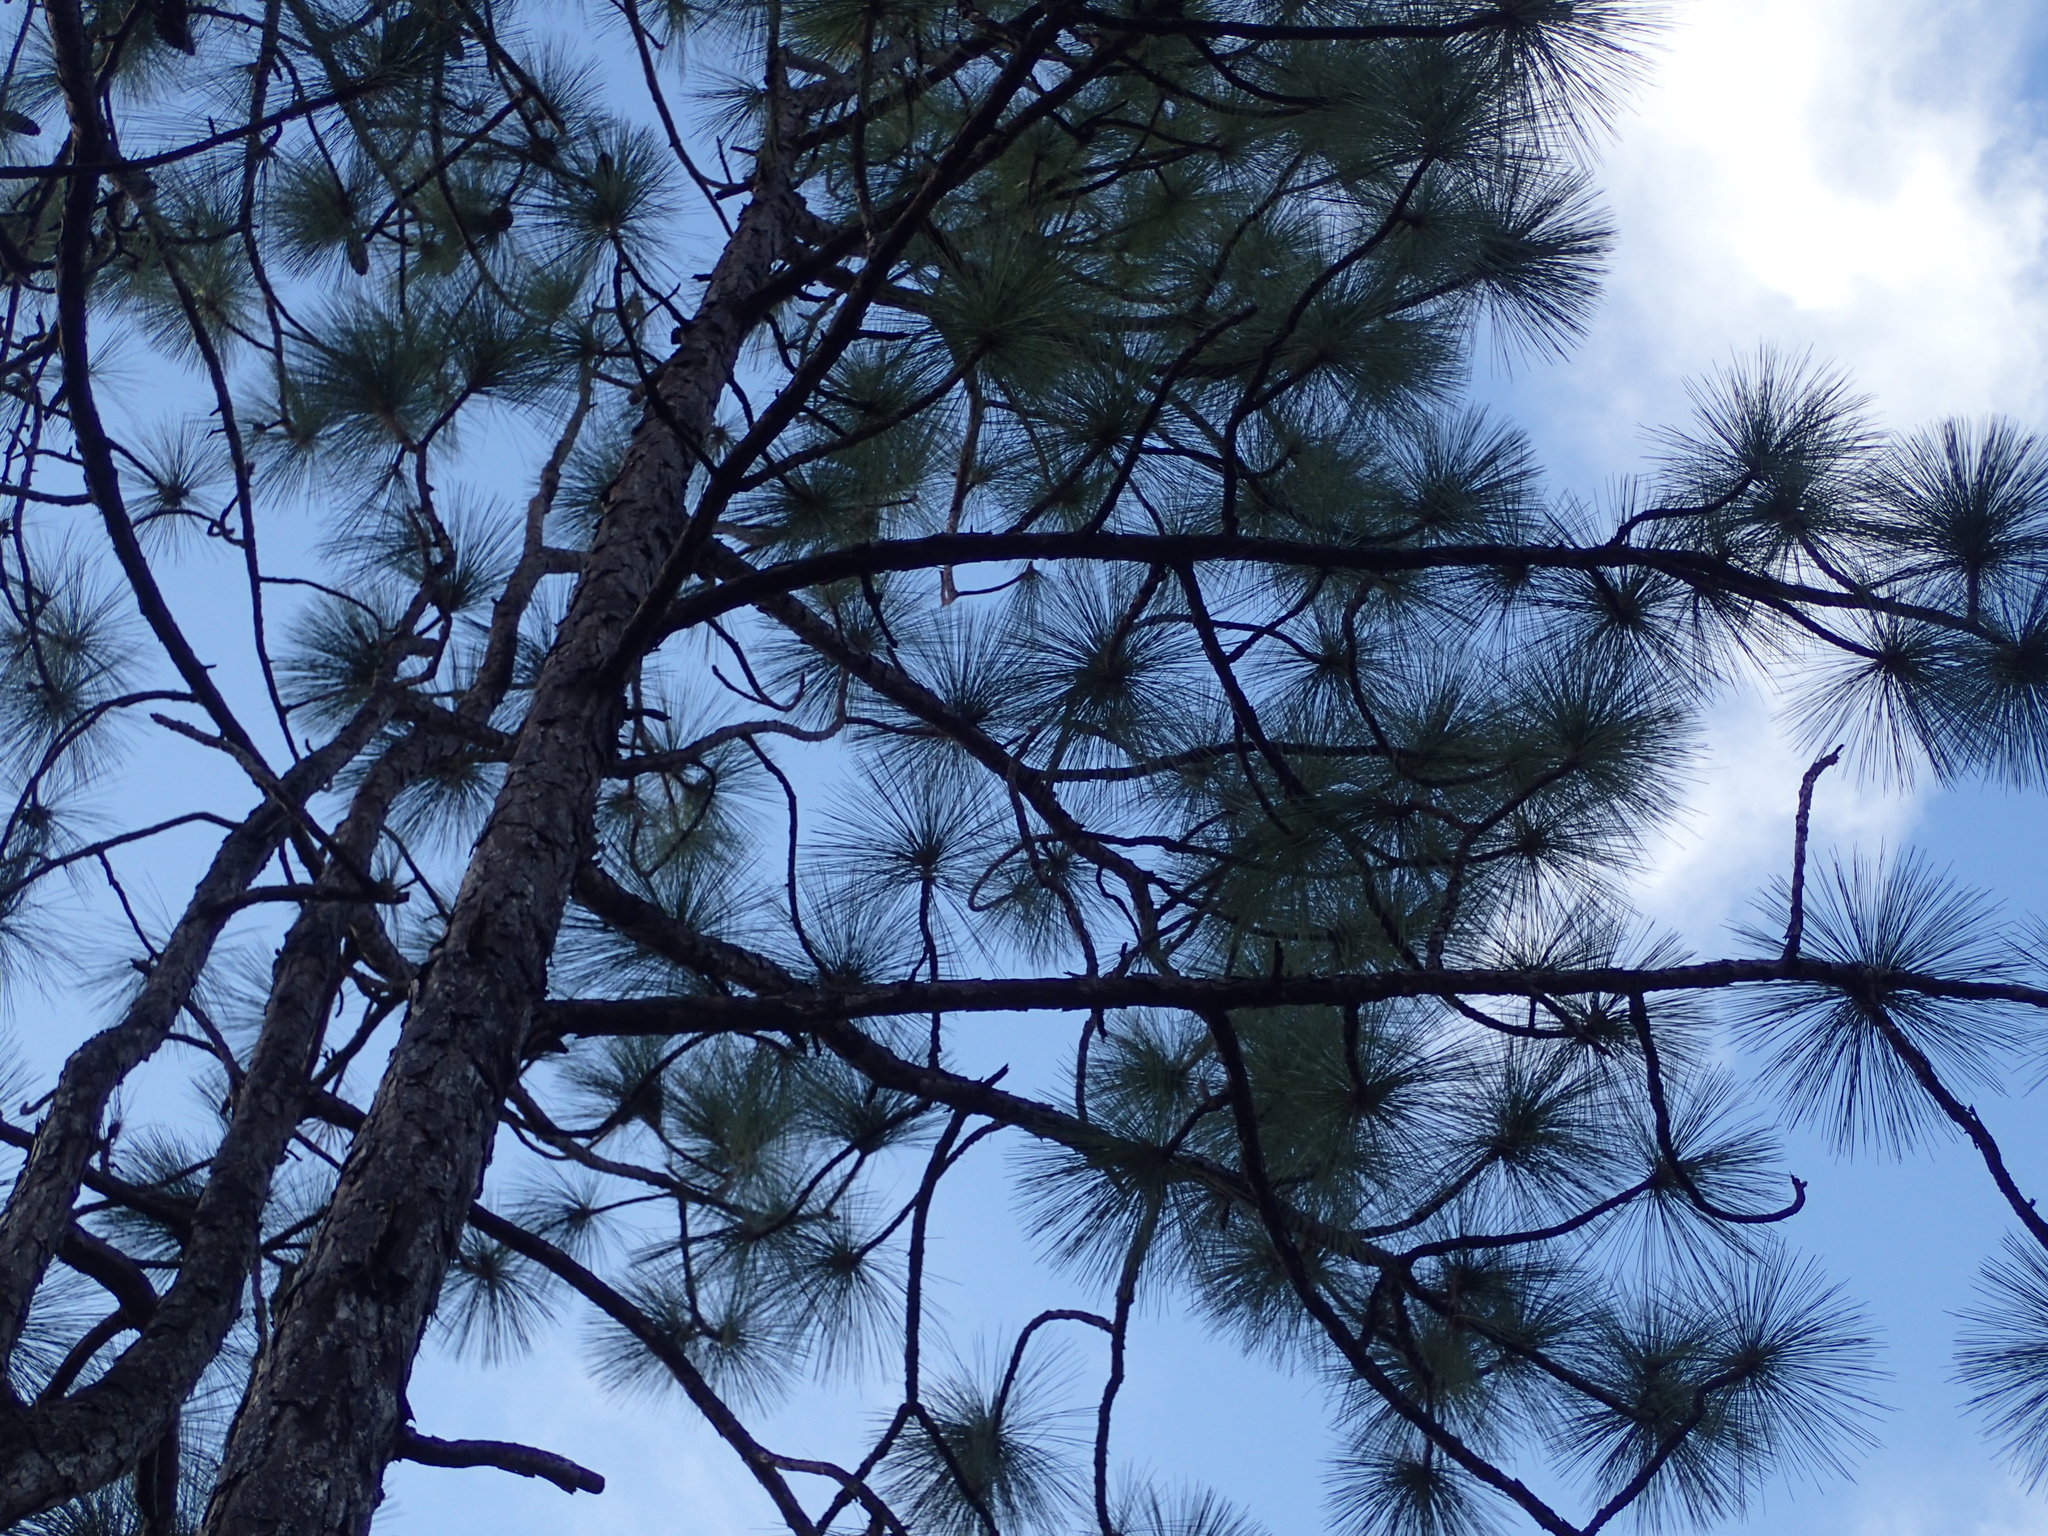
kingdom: Plantae
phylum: Tracheophyta
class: Pinopsida
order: Pinales
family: Pinaceae
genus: Pinus
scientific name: Pinus palustris
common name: Longleaf pine
